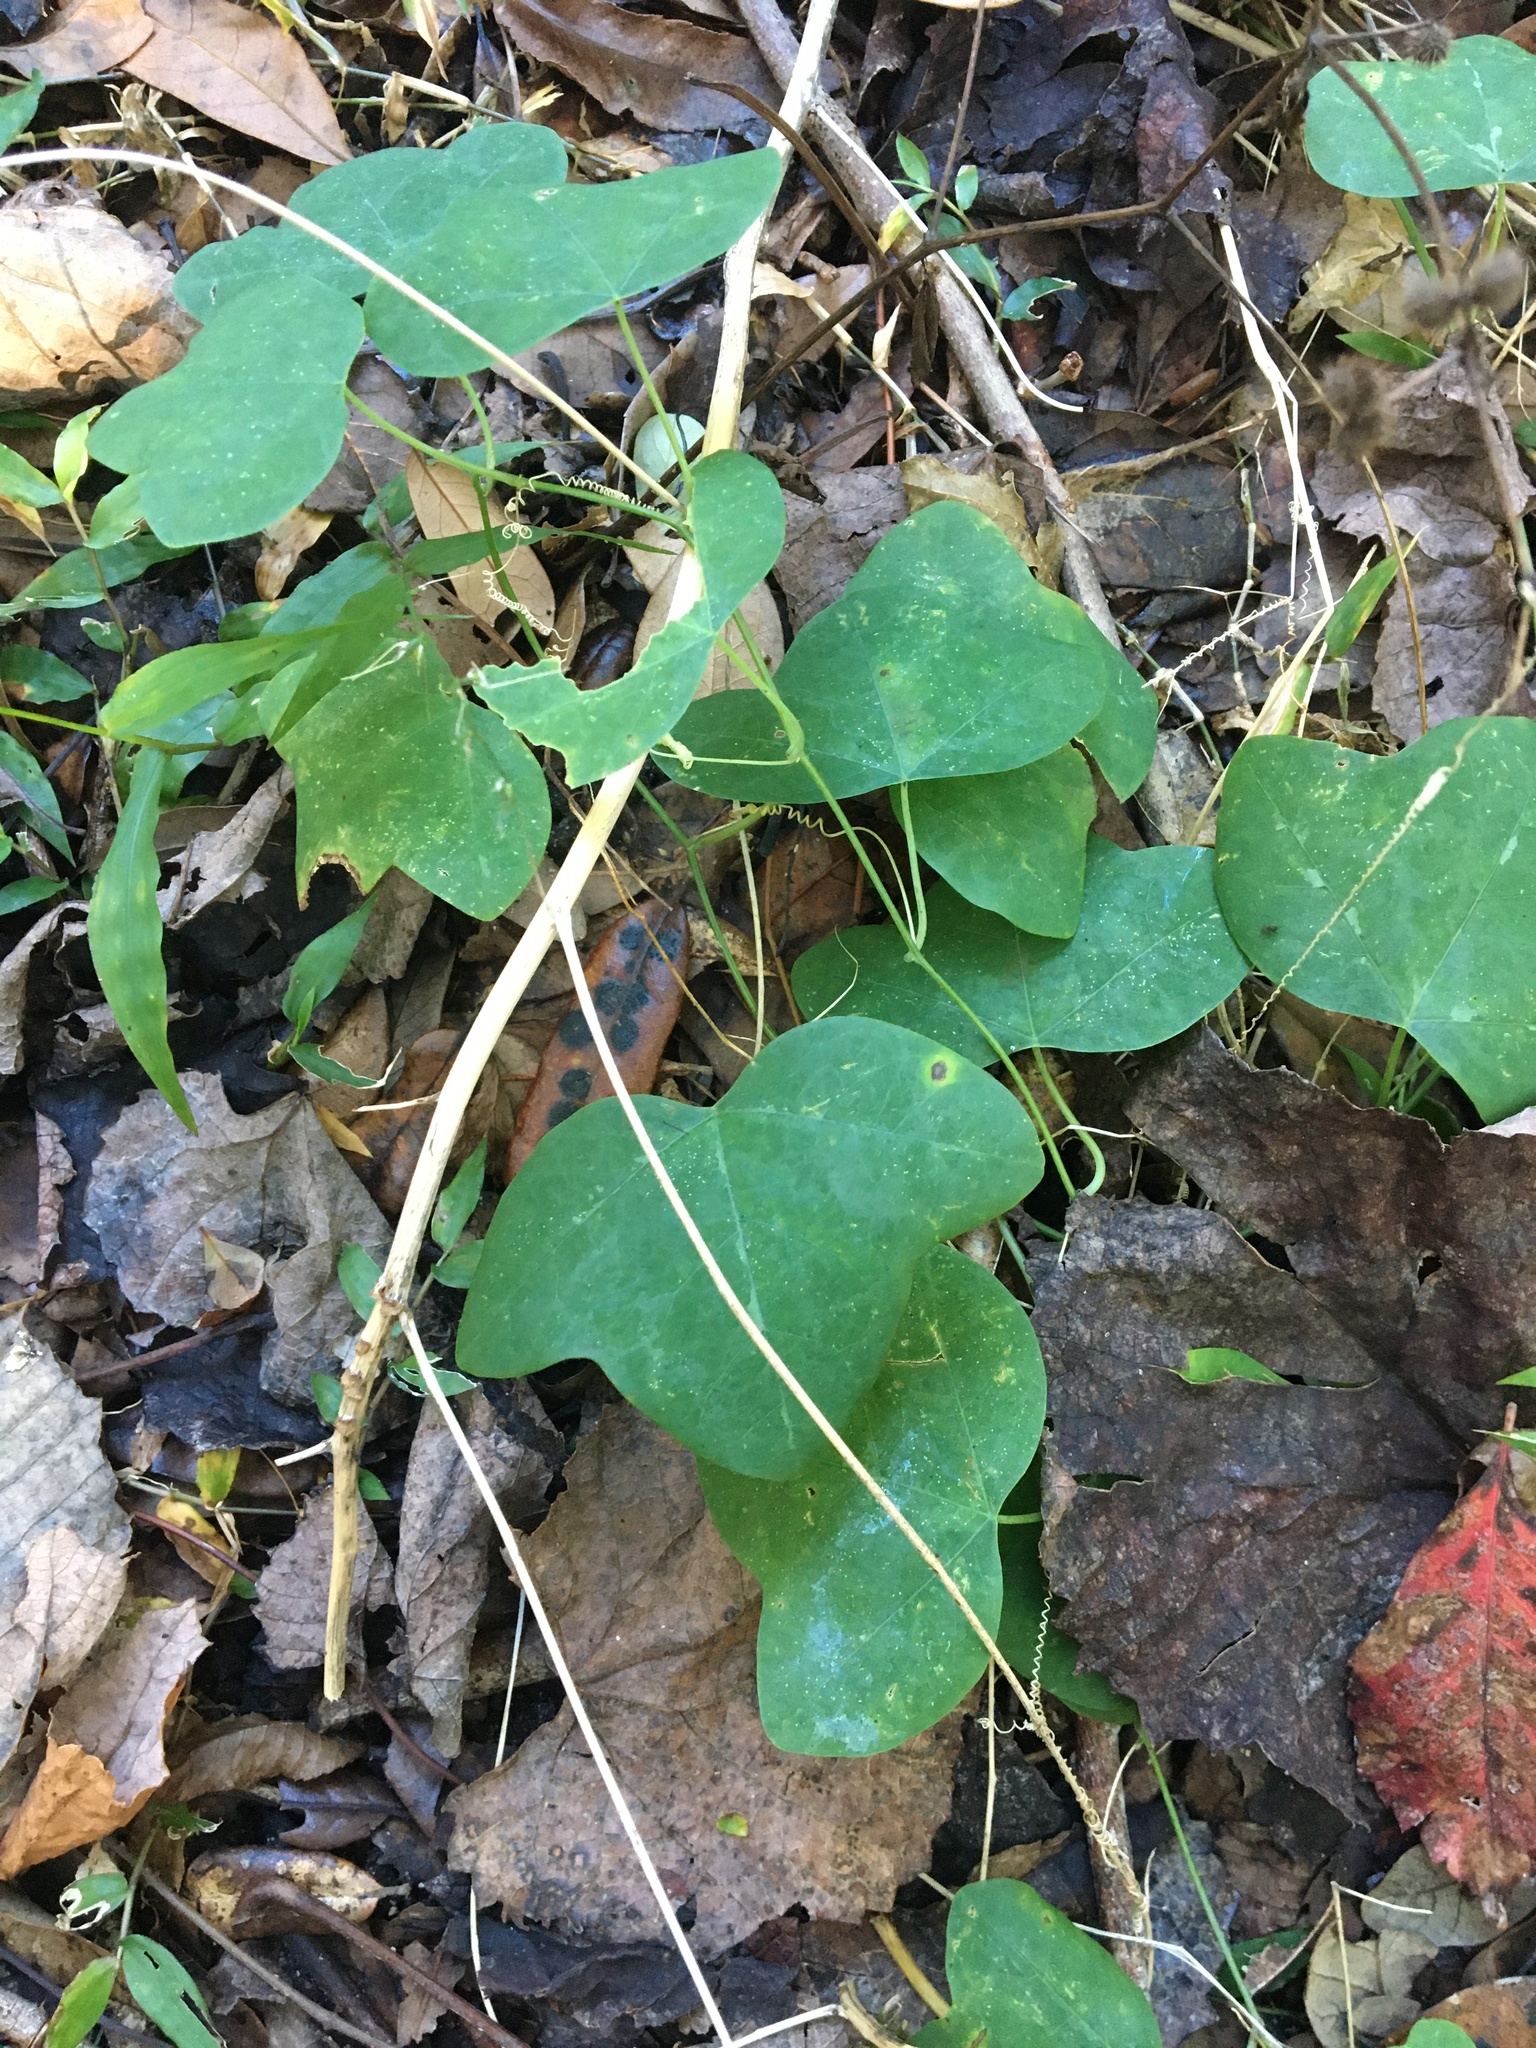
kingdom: Plantae
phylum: Tracheophyta
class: Magnoliopsida
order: Malpighiales
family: Passifloraceae
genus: Passiflora
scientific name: Passiflora lutea
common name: Yellow passionflower
